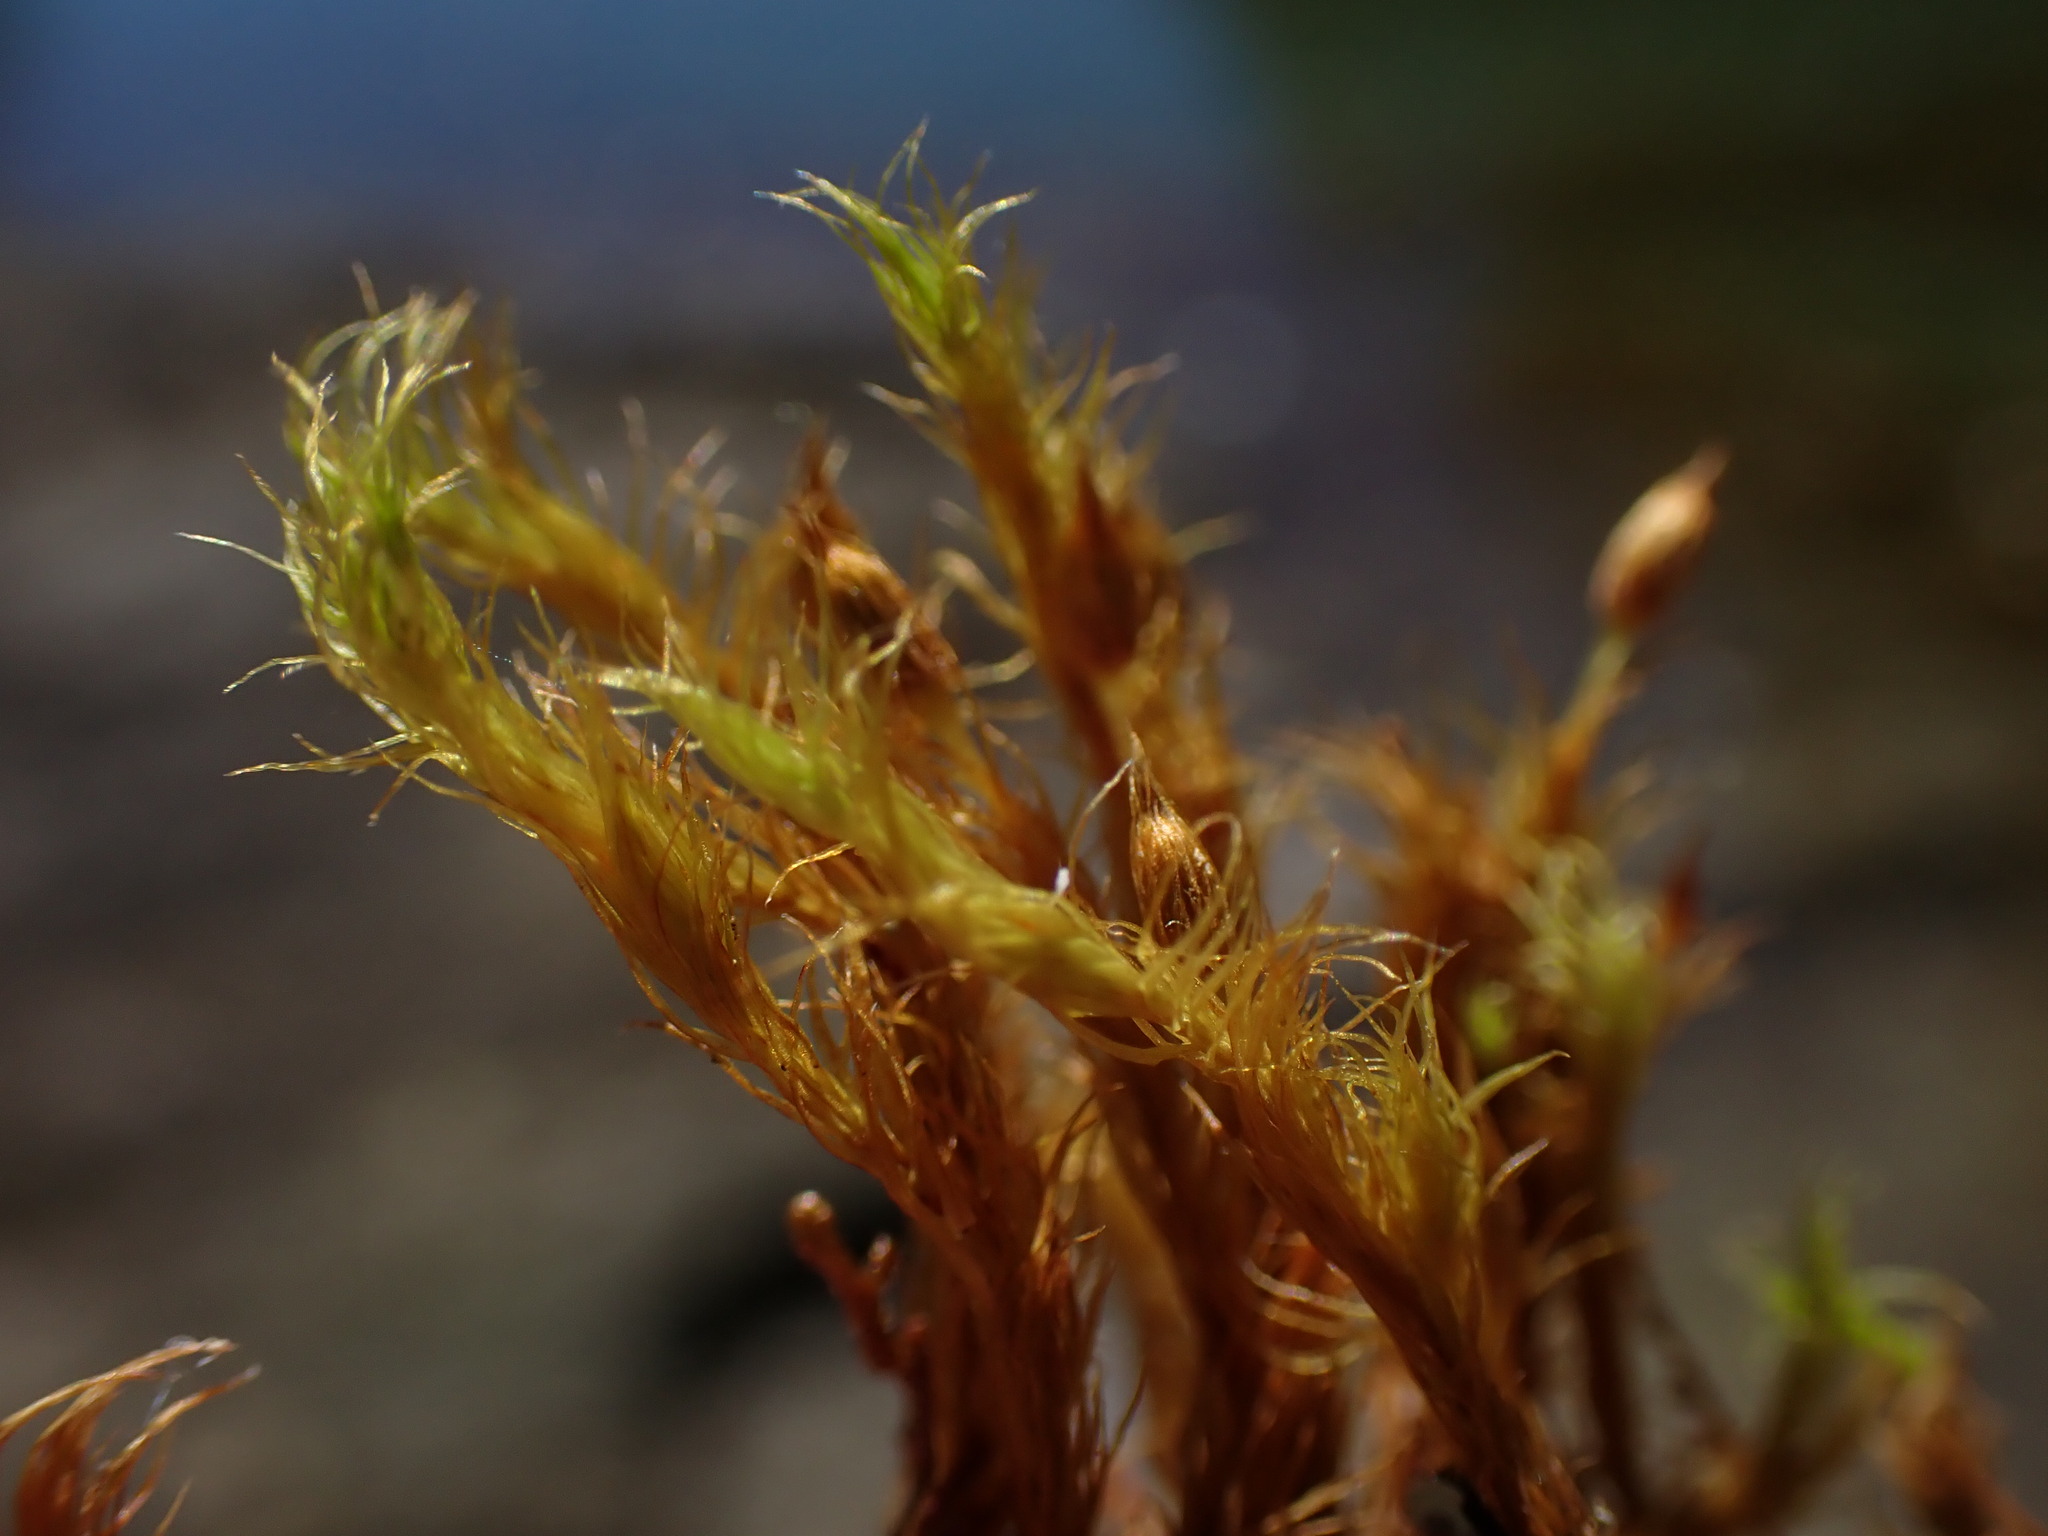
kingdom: Plantae
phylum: Bryophyta
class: Bryopsida
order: Orthotrichales
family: Orthotrichaceae
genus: Pulvigera
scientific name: Pulvigera pringlei
